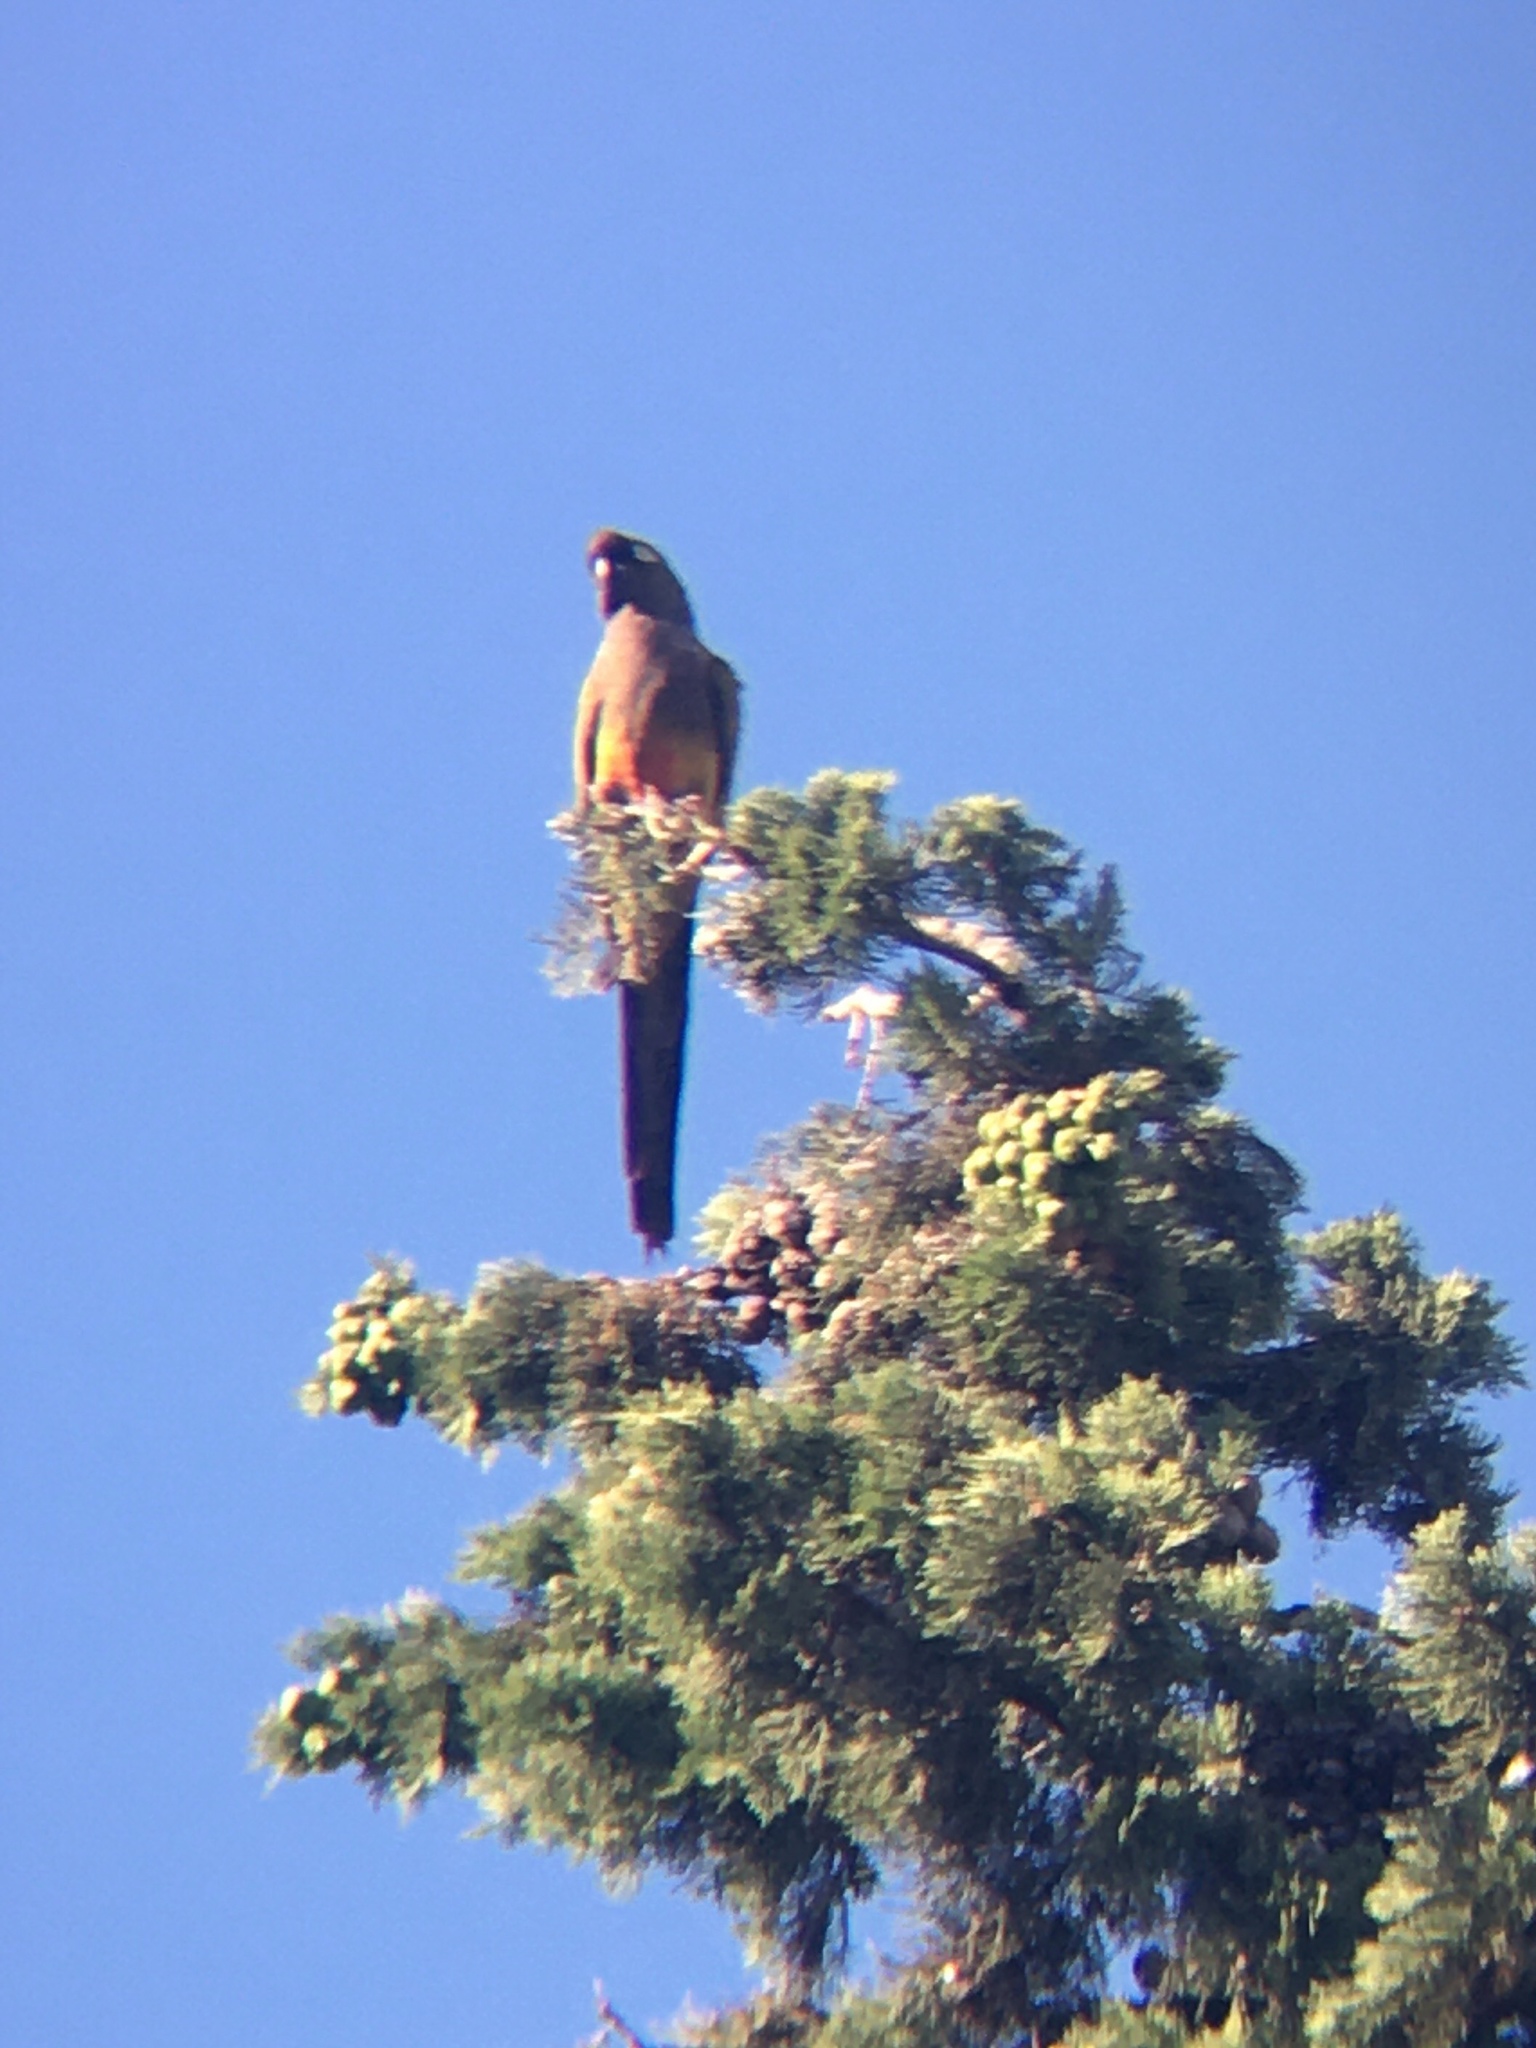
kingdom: Animalia
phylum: Chordata
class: Aves
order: Psittaciformes
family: Psittacidae
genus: Cyanoliseus
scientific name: Cyanoliseus patagonus
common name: Burrowing parrot
